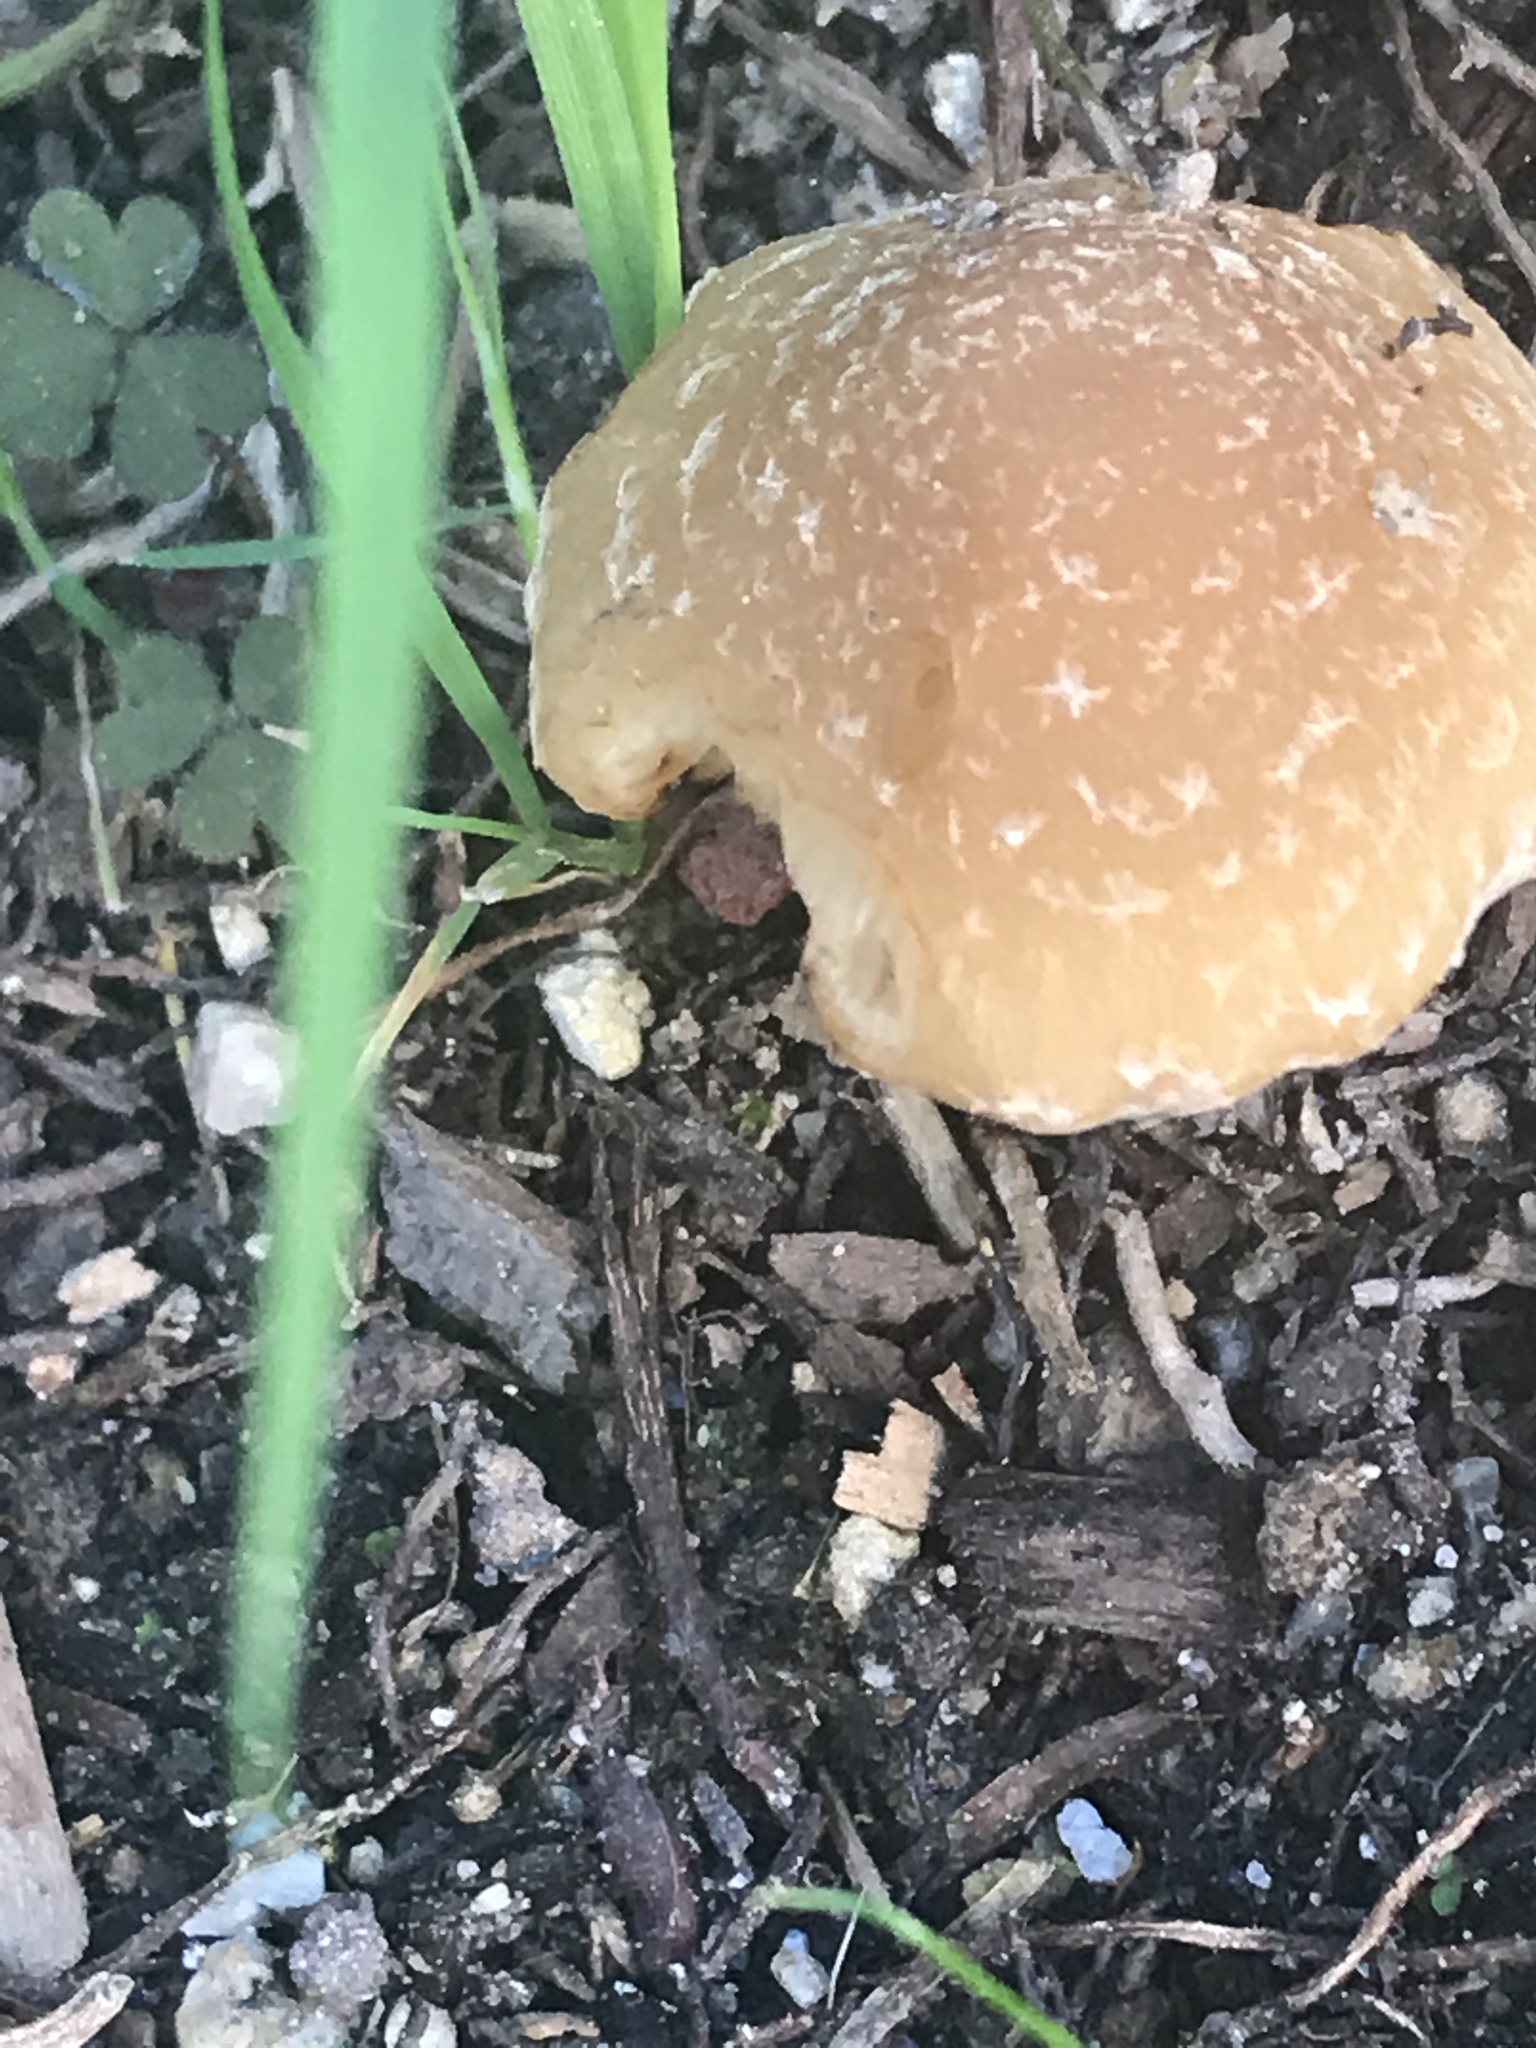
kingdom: Fungi
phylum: Basidiomycota
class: Agaricomycetes
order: Agaricales
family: Psathyrellaceae
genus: Candolleomyces
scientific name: Candolleomyces candolleanus
